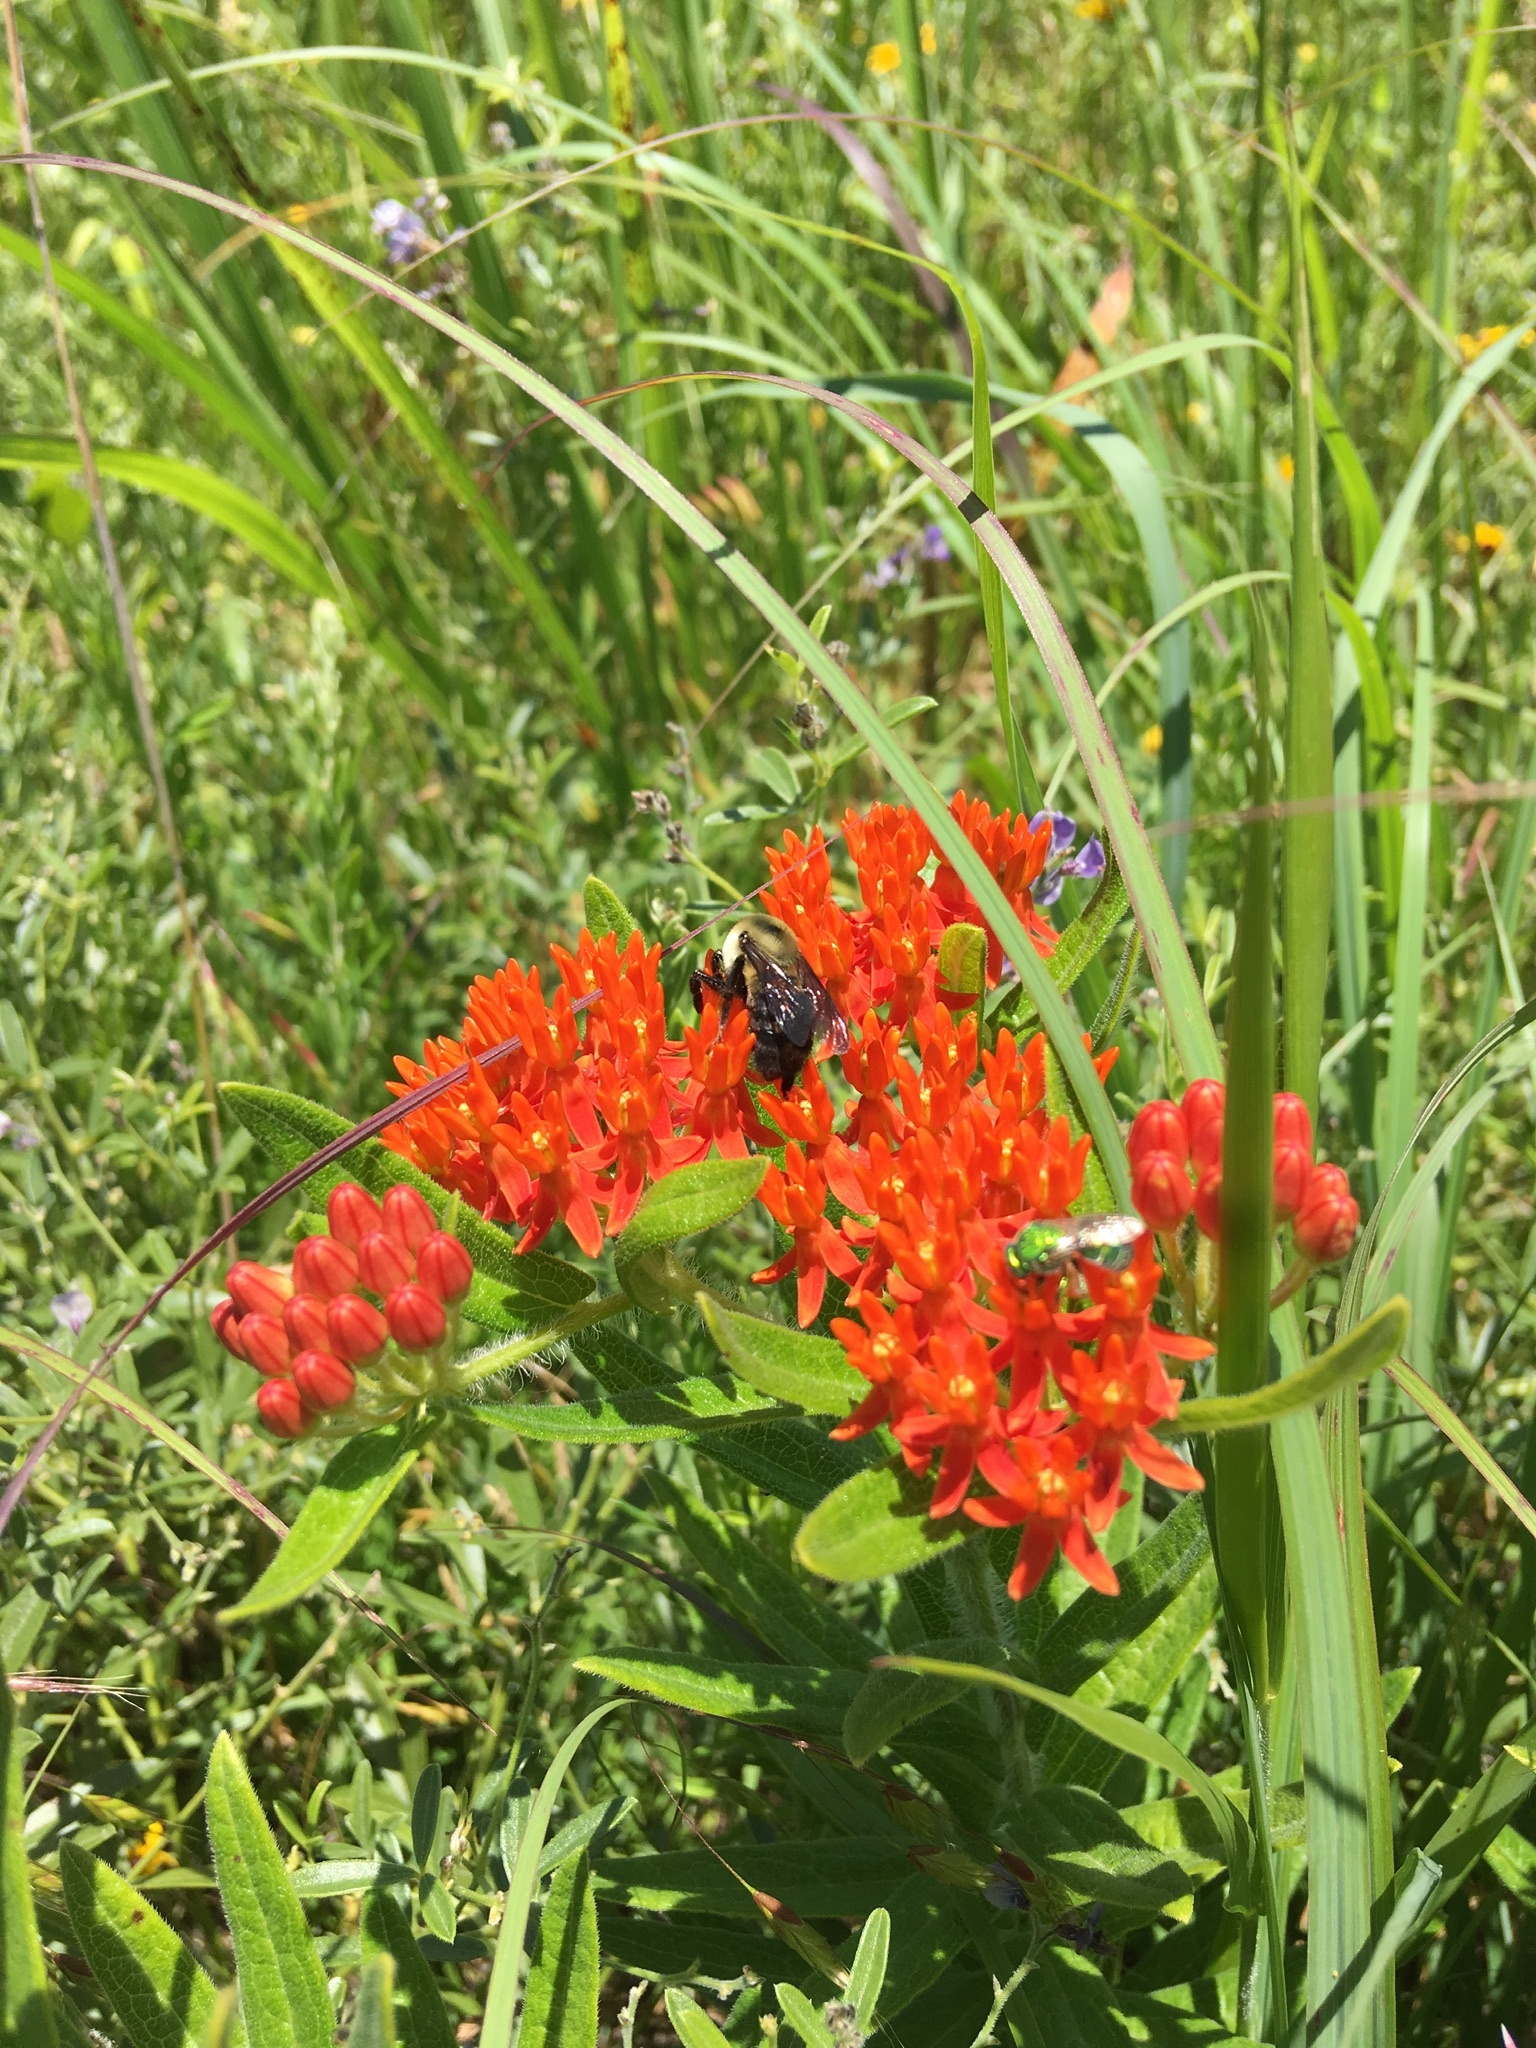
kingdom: Animalia
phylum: Arthropoda
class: Insecta
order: Hymenoptera
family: Apidae
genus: Bombus
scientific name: Bombus griseocollis
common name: Brown-belted bumble bee
